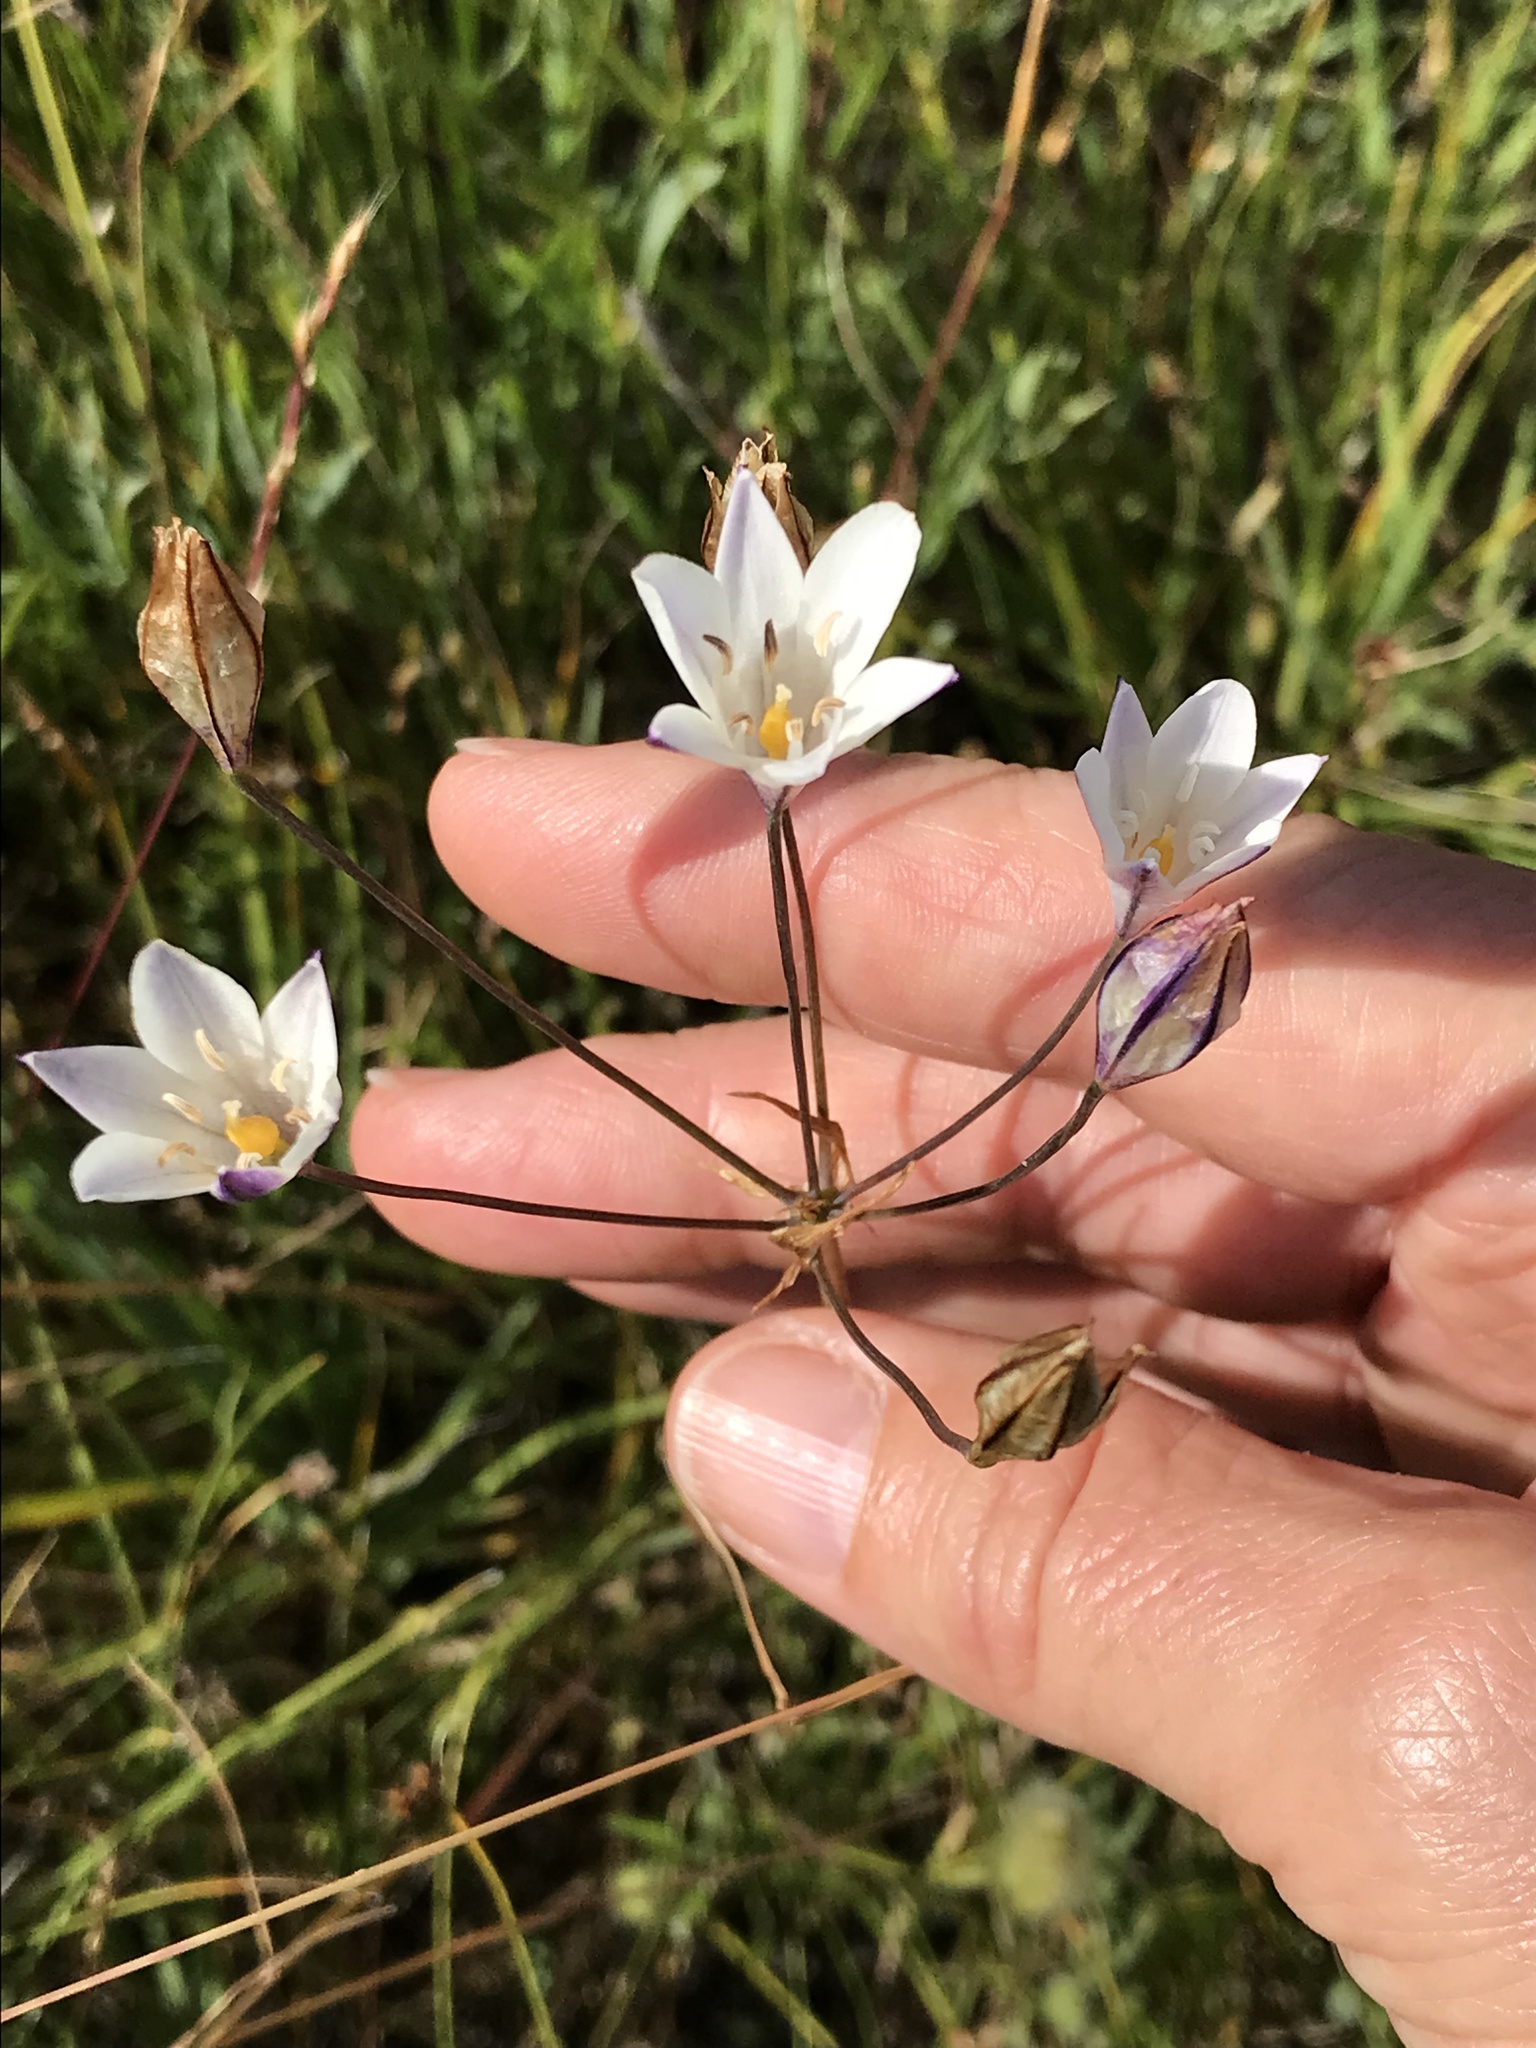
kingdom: Plantae
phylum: Tracheophyta
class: Liliopsida
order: Asparagales
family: Asparagaceae
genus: Triteleia
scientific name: Triteleia peduncularis
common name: Long-ray brodiaea
